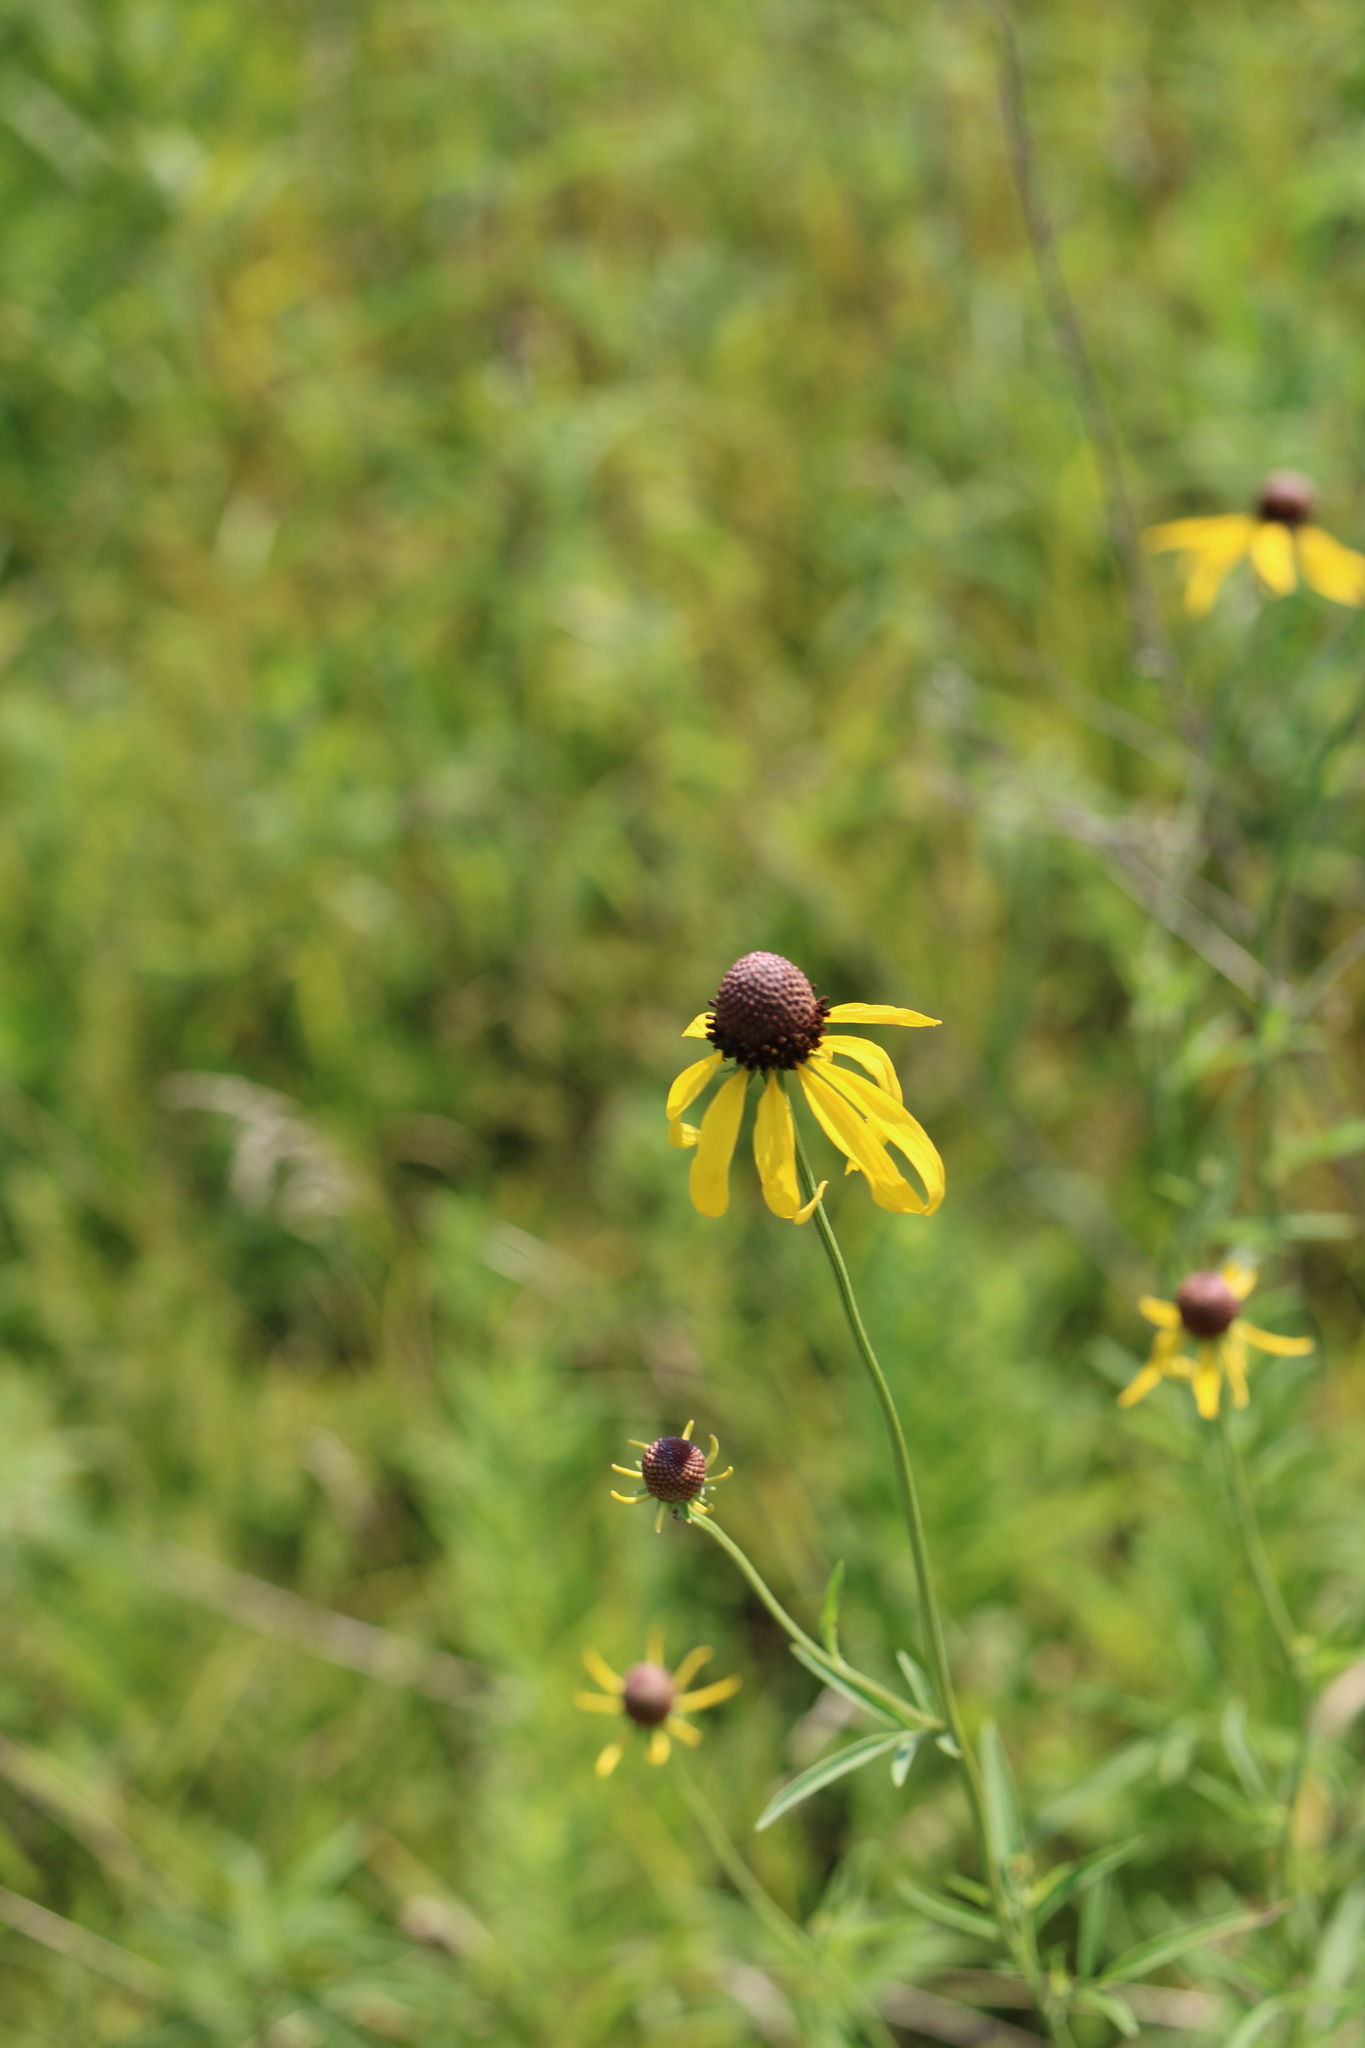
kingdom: Plantae
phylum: Tracheophyta
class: Magnoliopsida
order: Asterales
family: Asteraceae
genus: Ratibida
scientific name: Ratibida pinnata
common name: Drooping prairie-coneflower
